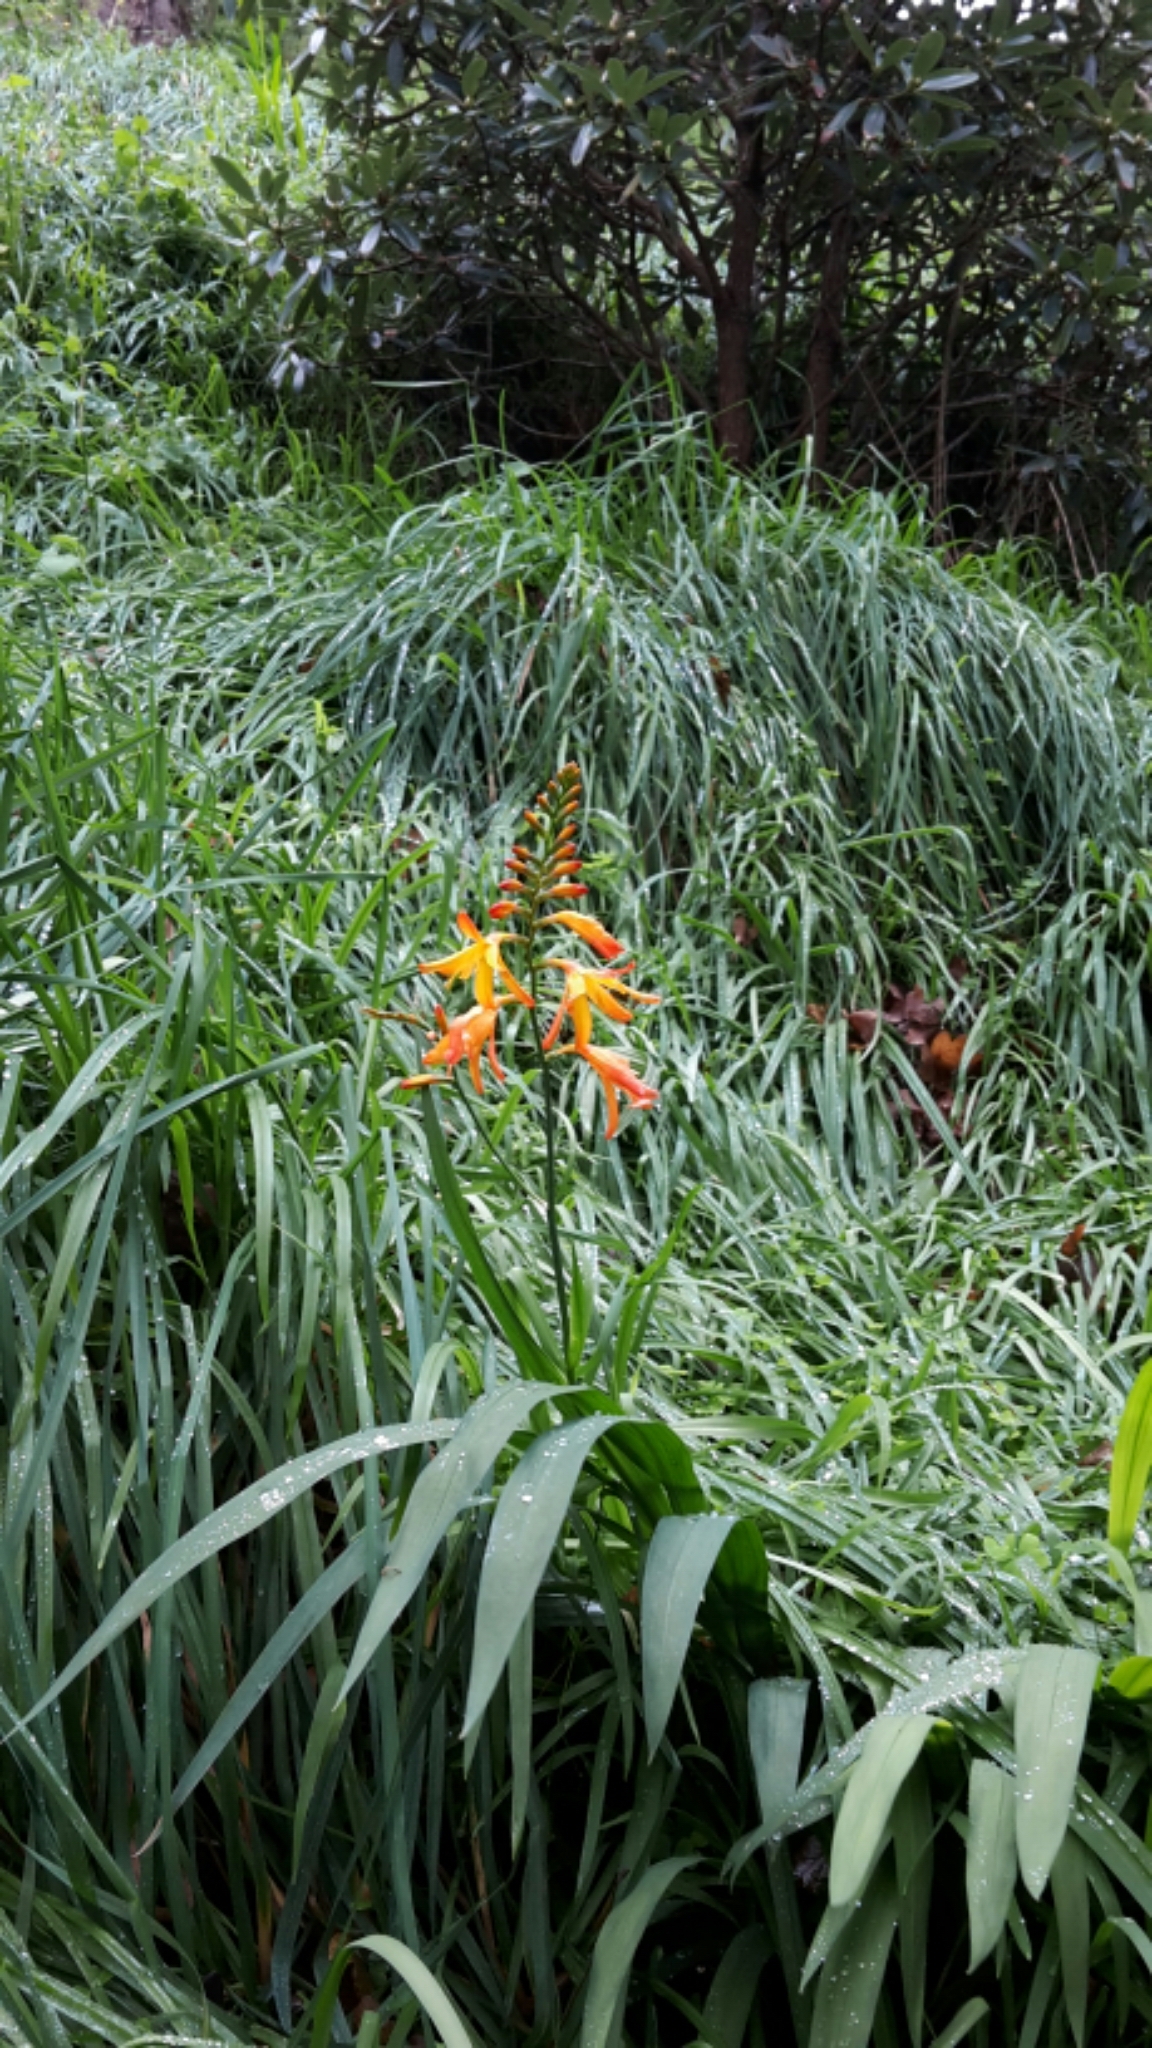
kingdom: Plantae
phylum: Tracheophyta
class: Liliopsida
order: Asparagales
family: Iridaceae
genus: Crocosmia
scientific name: Crocosmia crocosmiiflora
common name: Montbretia
